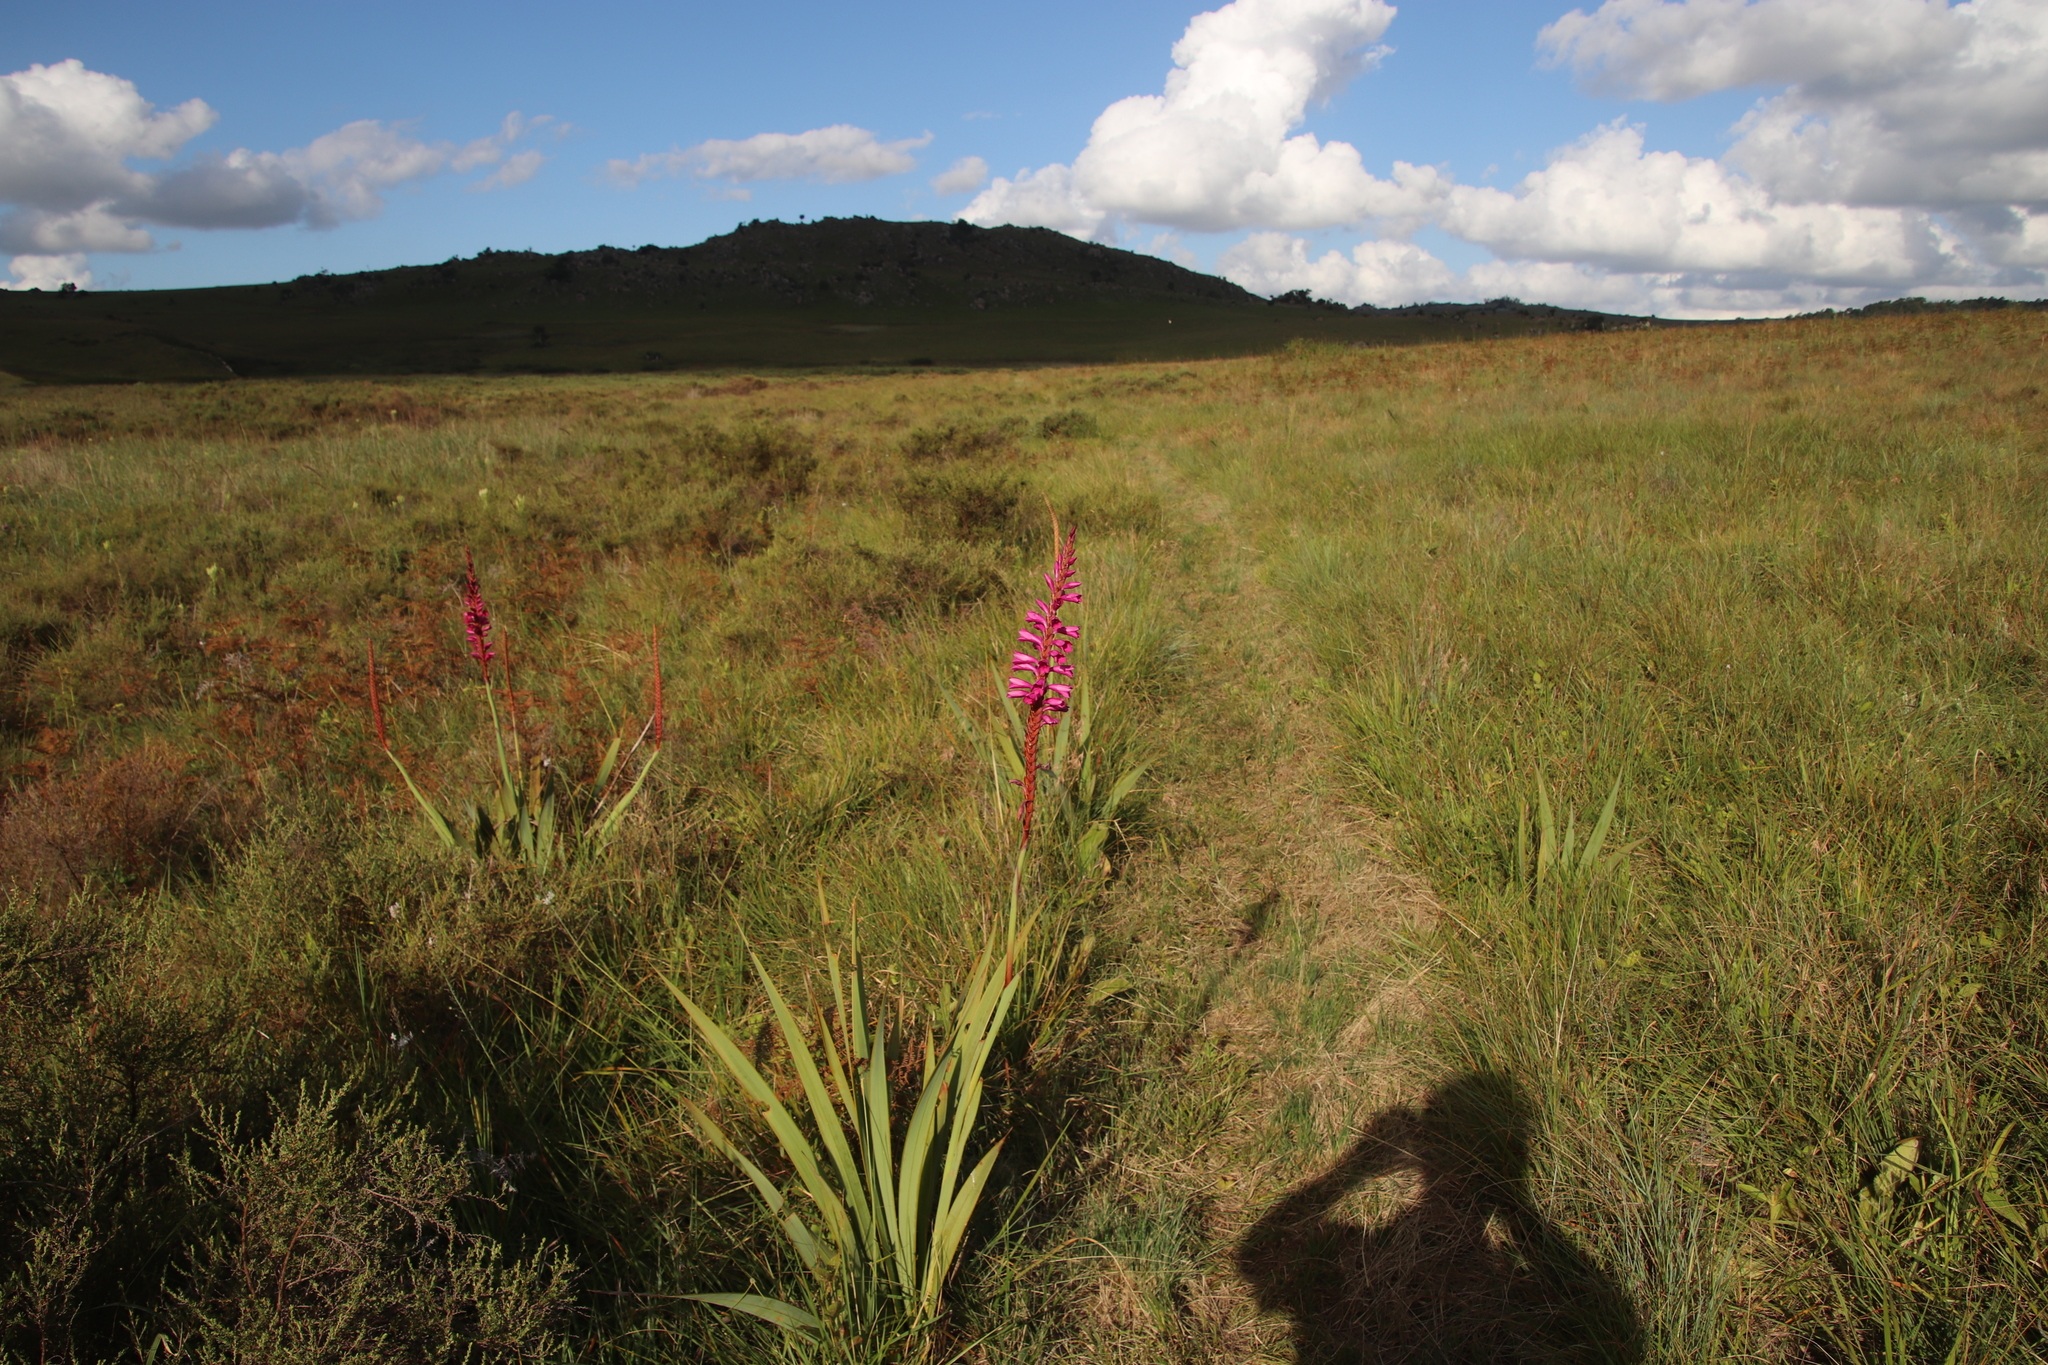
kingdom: Plantae
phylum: Tracheophyta
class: Liliopsida
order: Asparagales
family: Iridaceae
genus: Watsonia
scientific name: Watsonia pulchra
